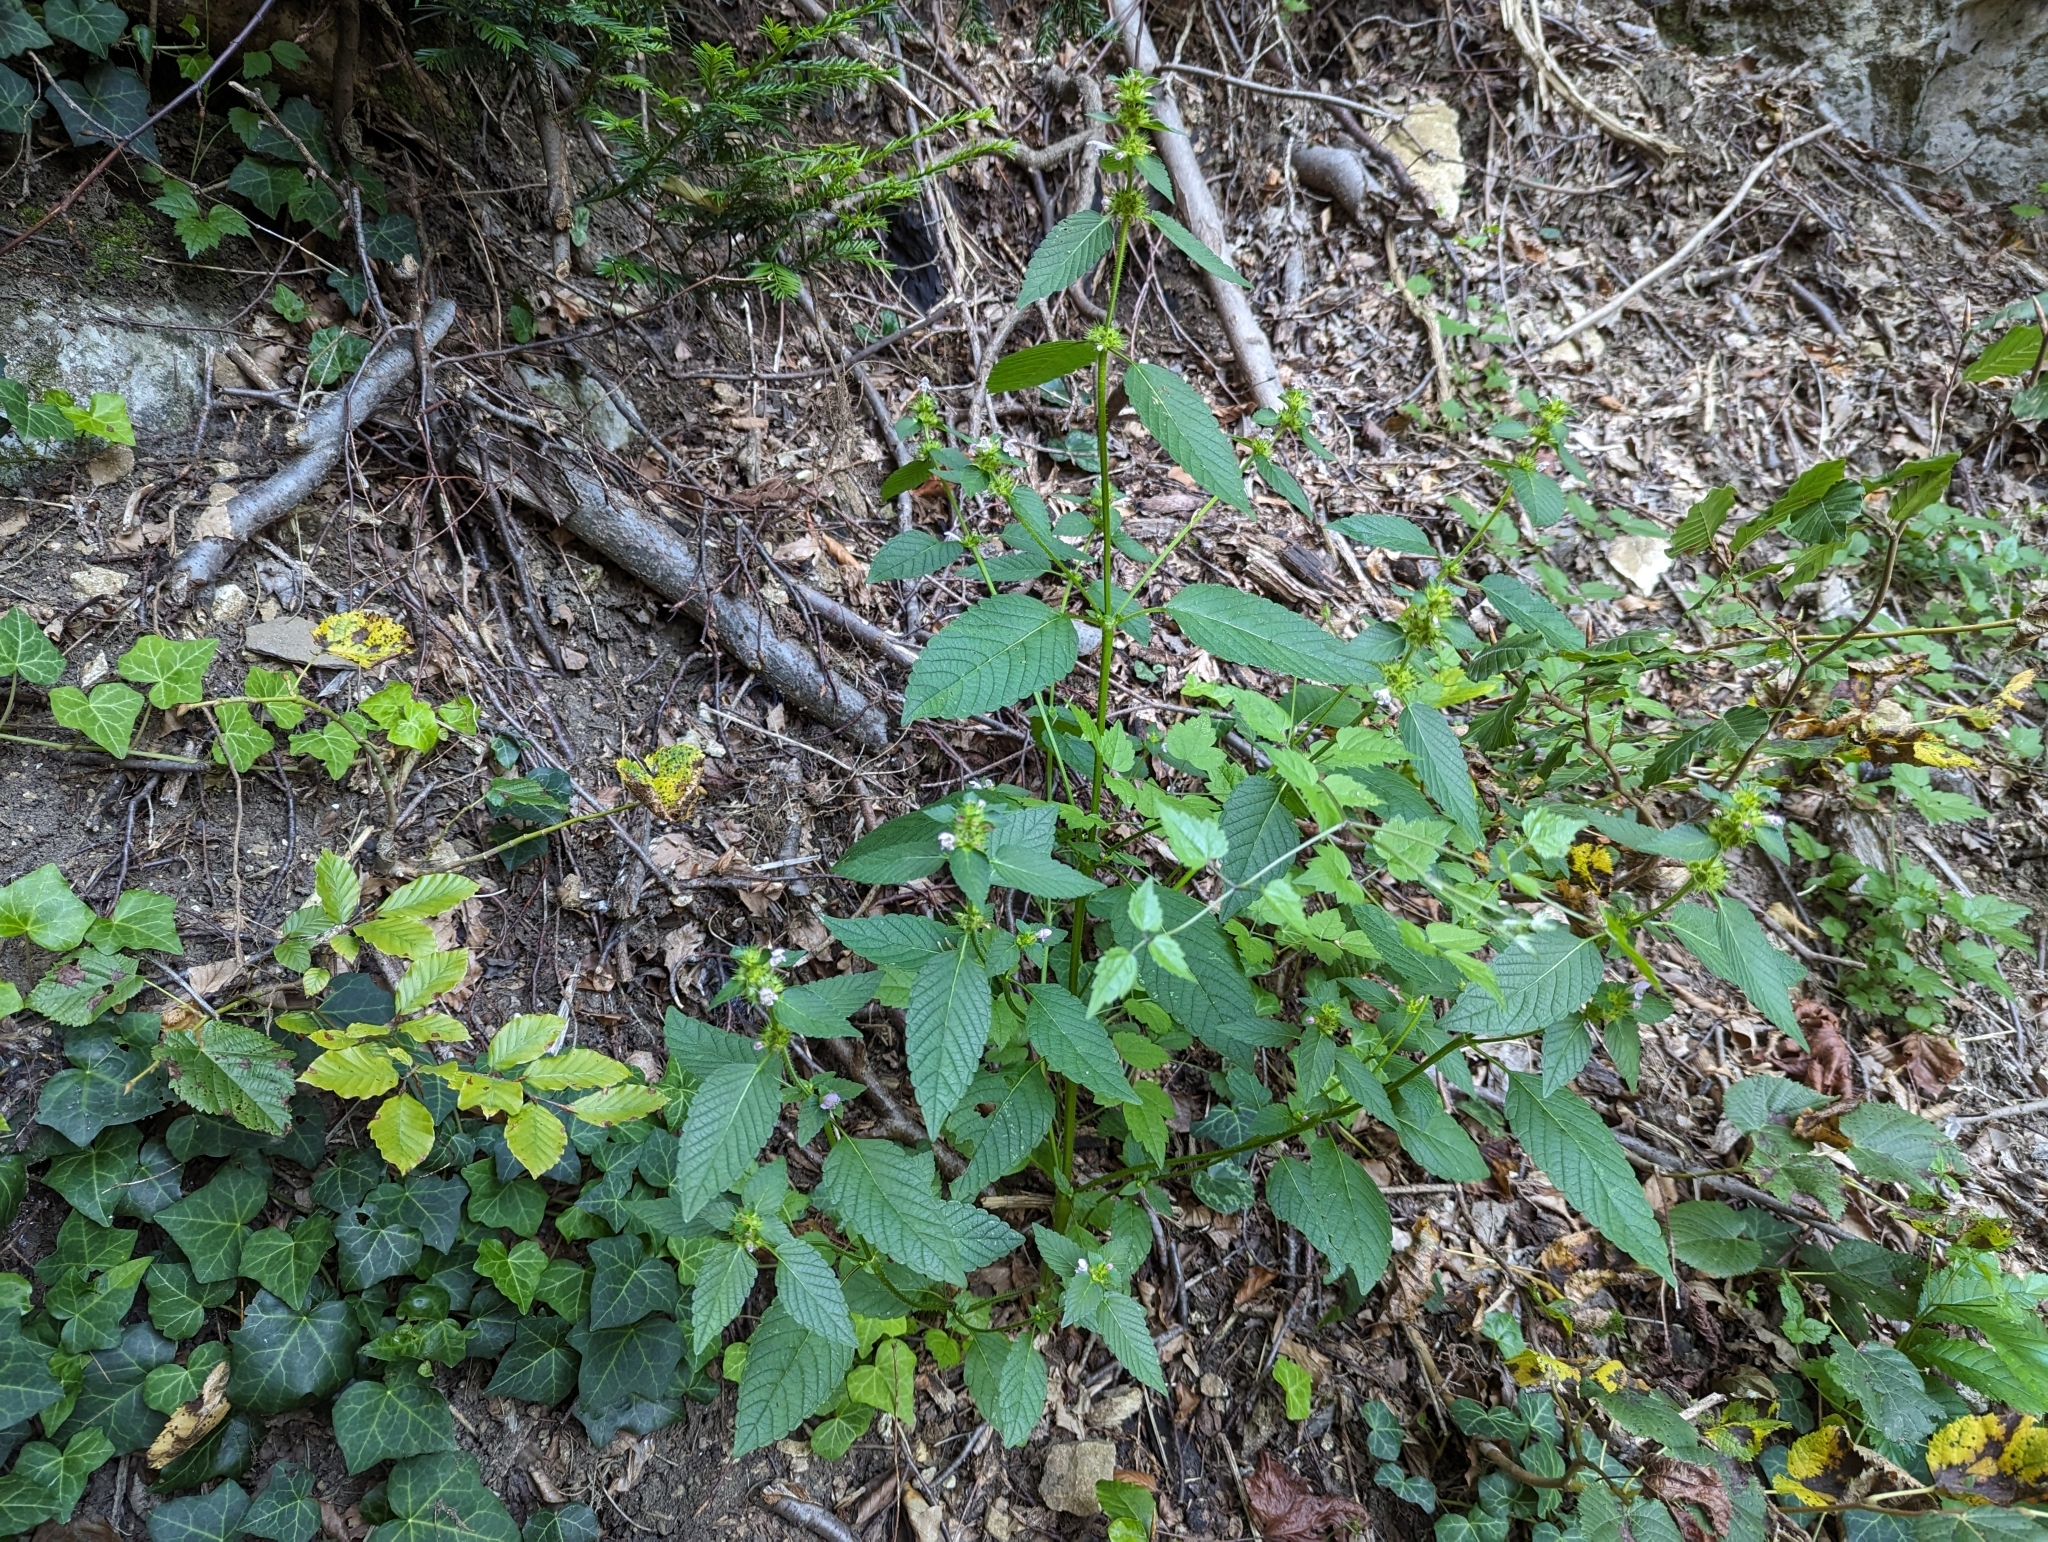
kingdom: Plantae
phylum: Tracheophyta
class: Magnoliopsida
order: Malpighiales
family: Violaceae
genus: Viola
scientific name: Viola reichenbachiana
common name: Early dog-violet
